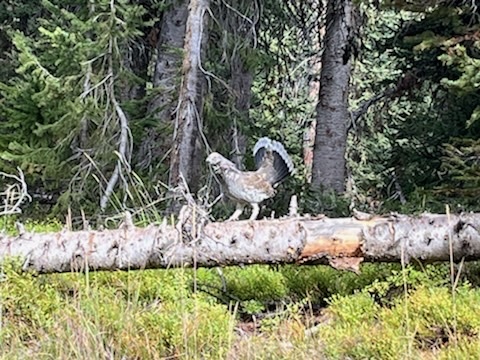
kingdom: Animalia
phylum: Chordata
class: Aves
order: Galliformes
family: Phasianidae
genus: Dendragapus
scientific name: Dendragapus obscurus
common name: Dusky grouse
